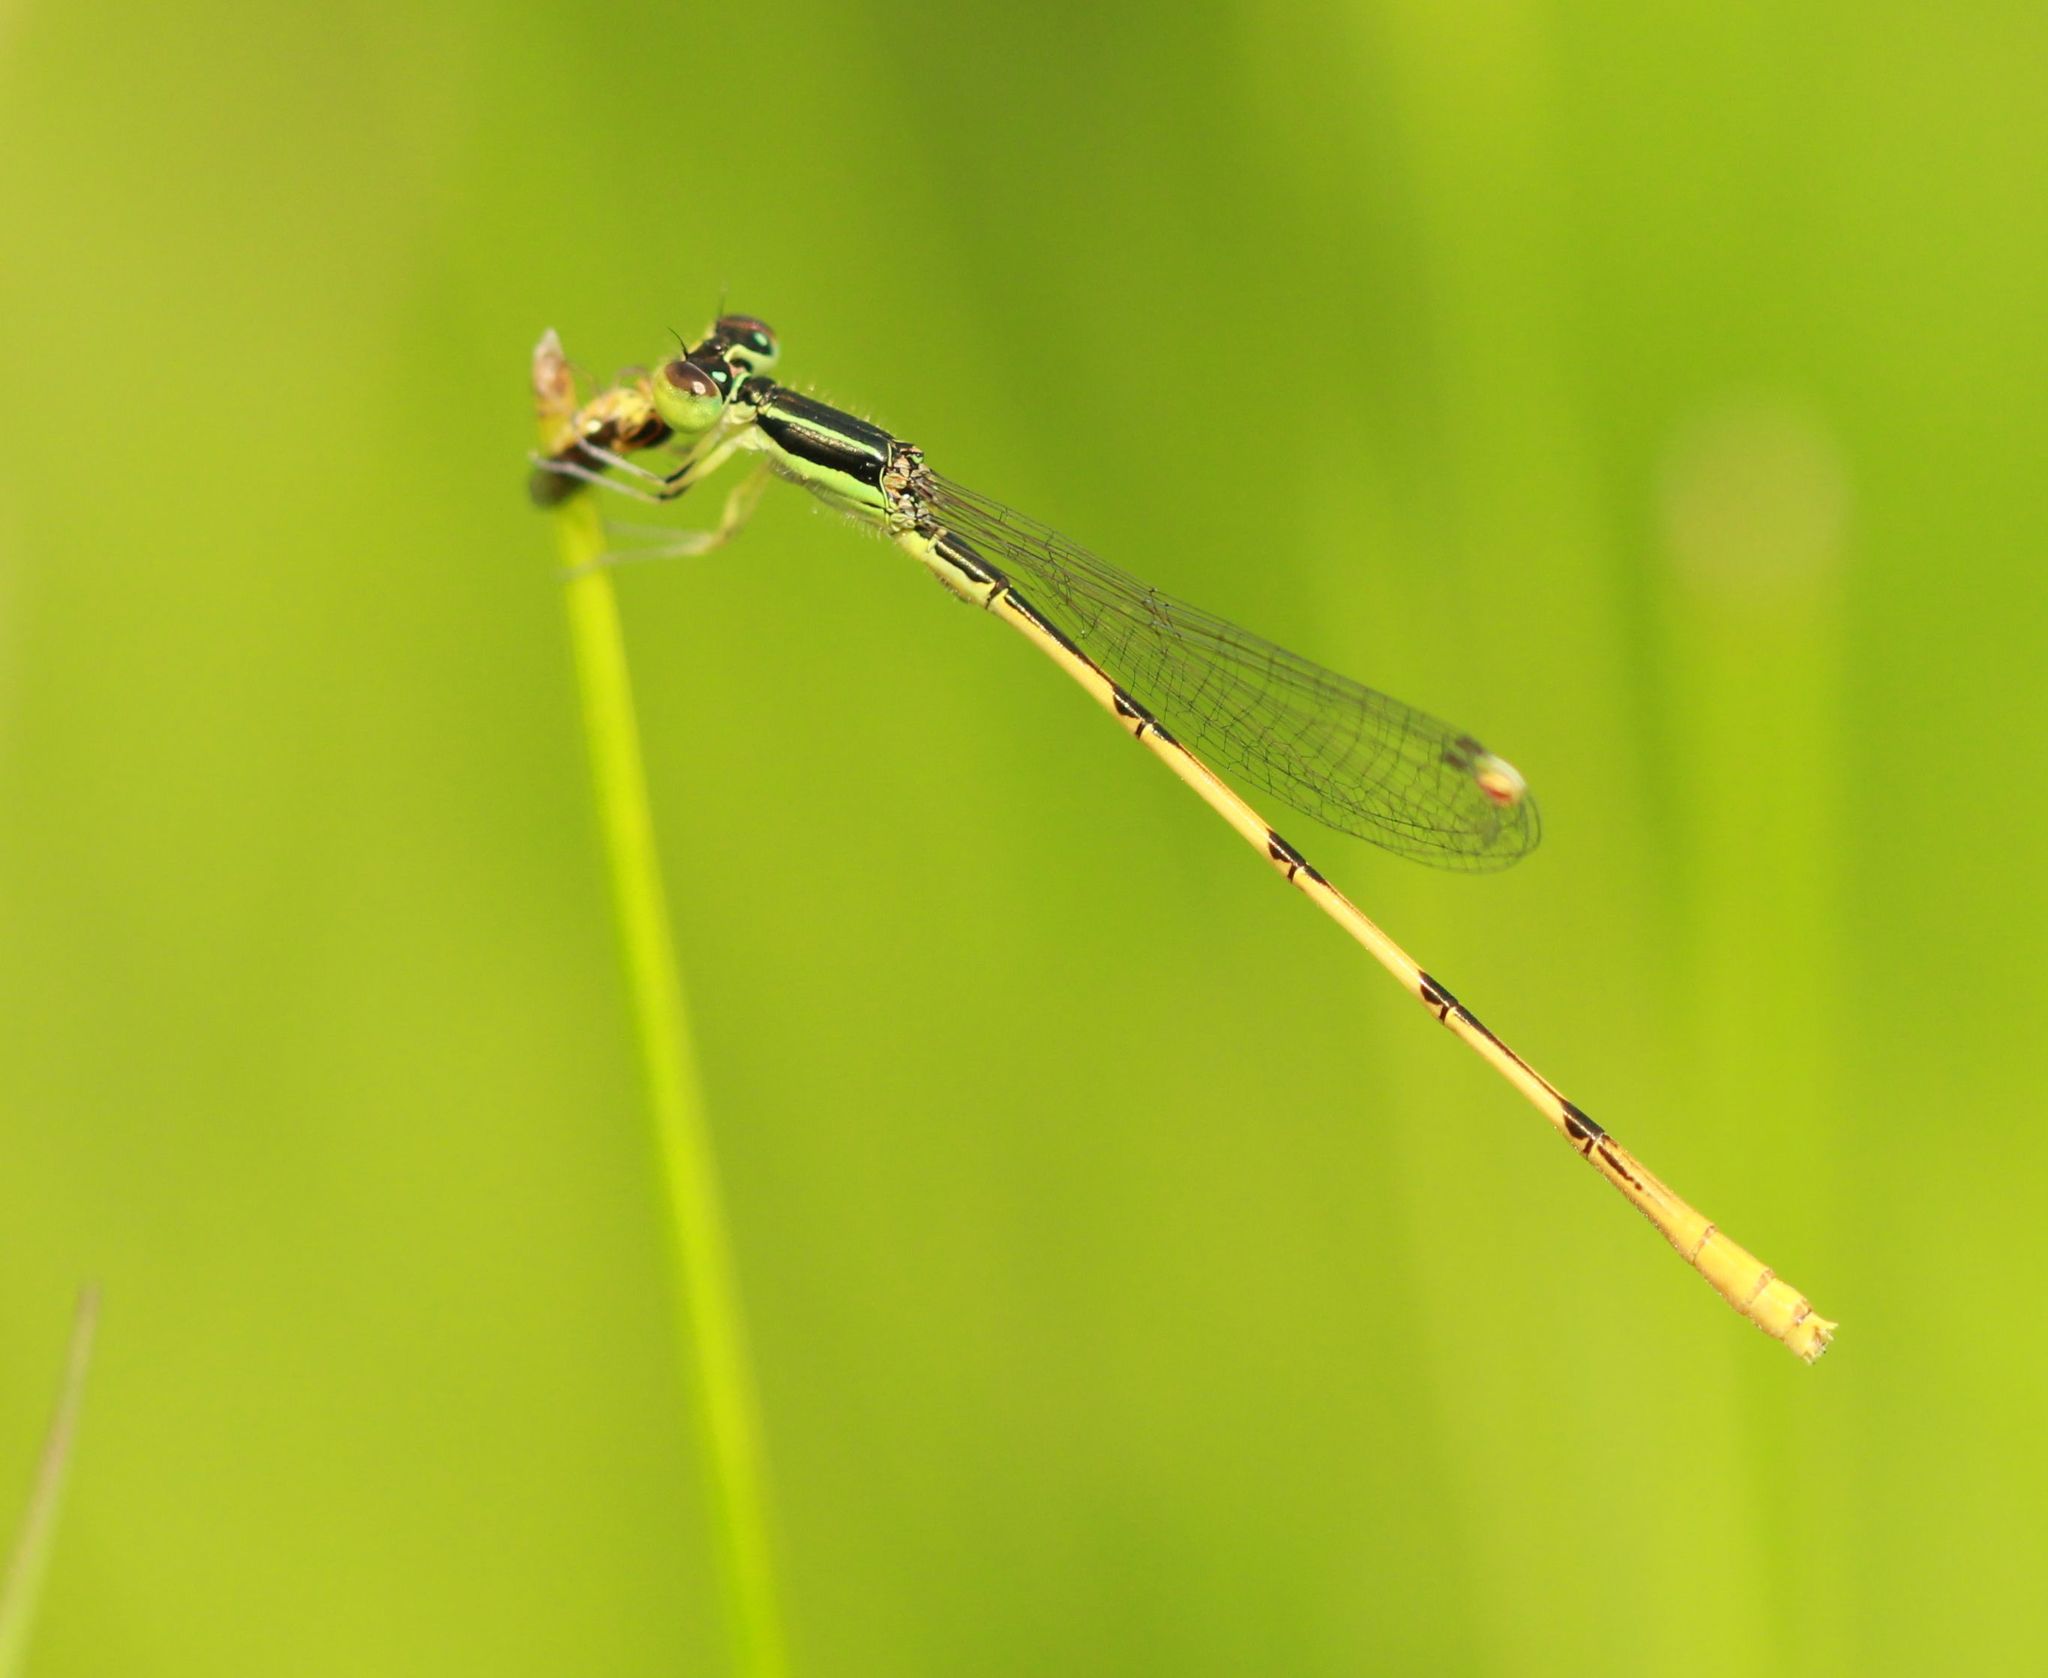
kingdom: Animalia
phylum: Arthropoda
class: Insecta
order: Odonata
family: Coenagrionidae
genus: Ischnura
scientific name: Ischnura hastata
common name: Citrine forktail
